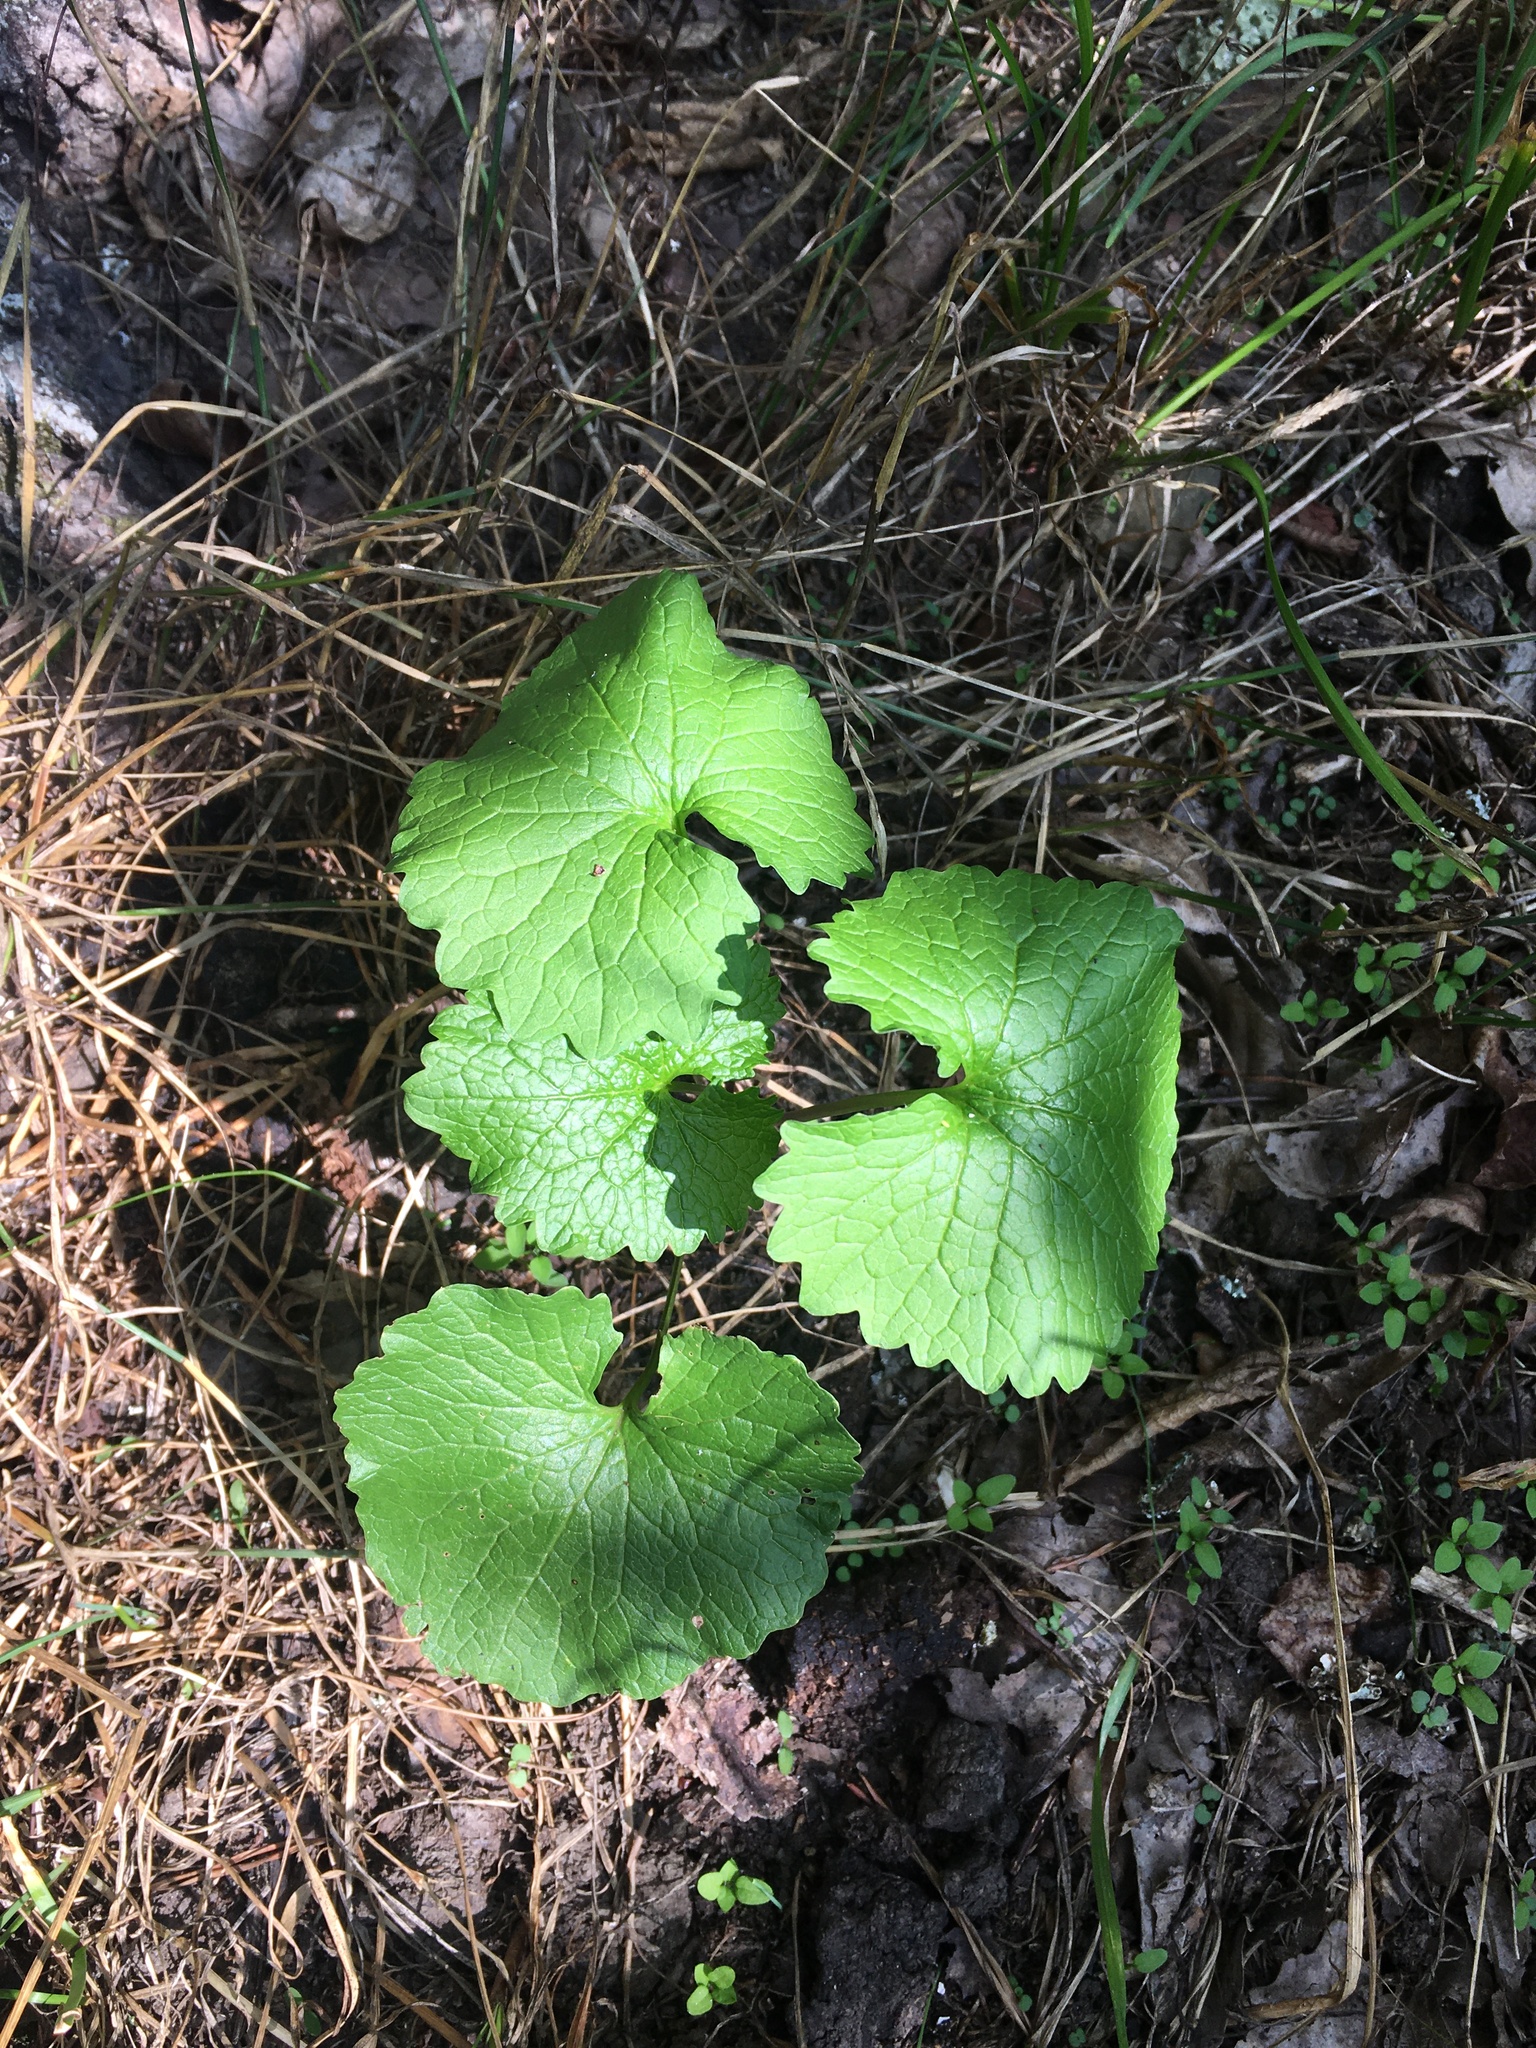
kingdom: Plantae
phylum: Tracheophyta
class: Magnoliopsida
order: Brassicales
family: Brassicaceae
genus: Alliaria
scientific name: Alliaria petiolata
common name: Garlic mustard
